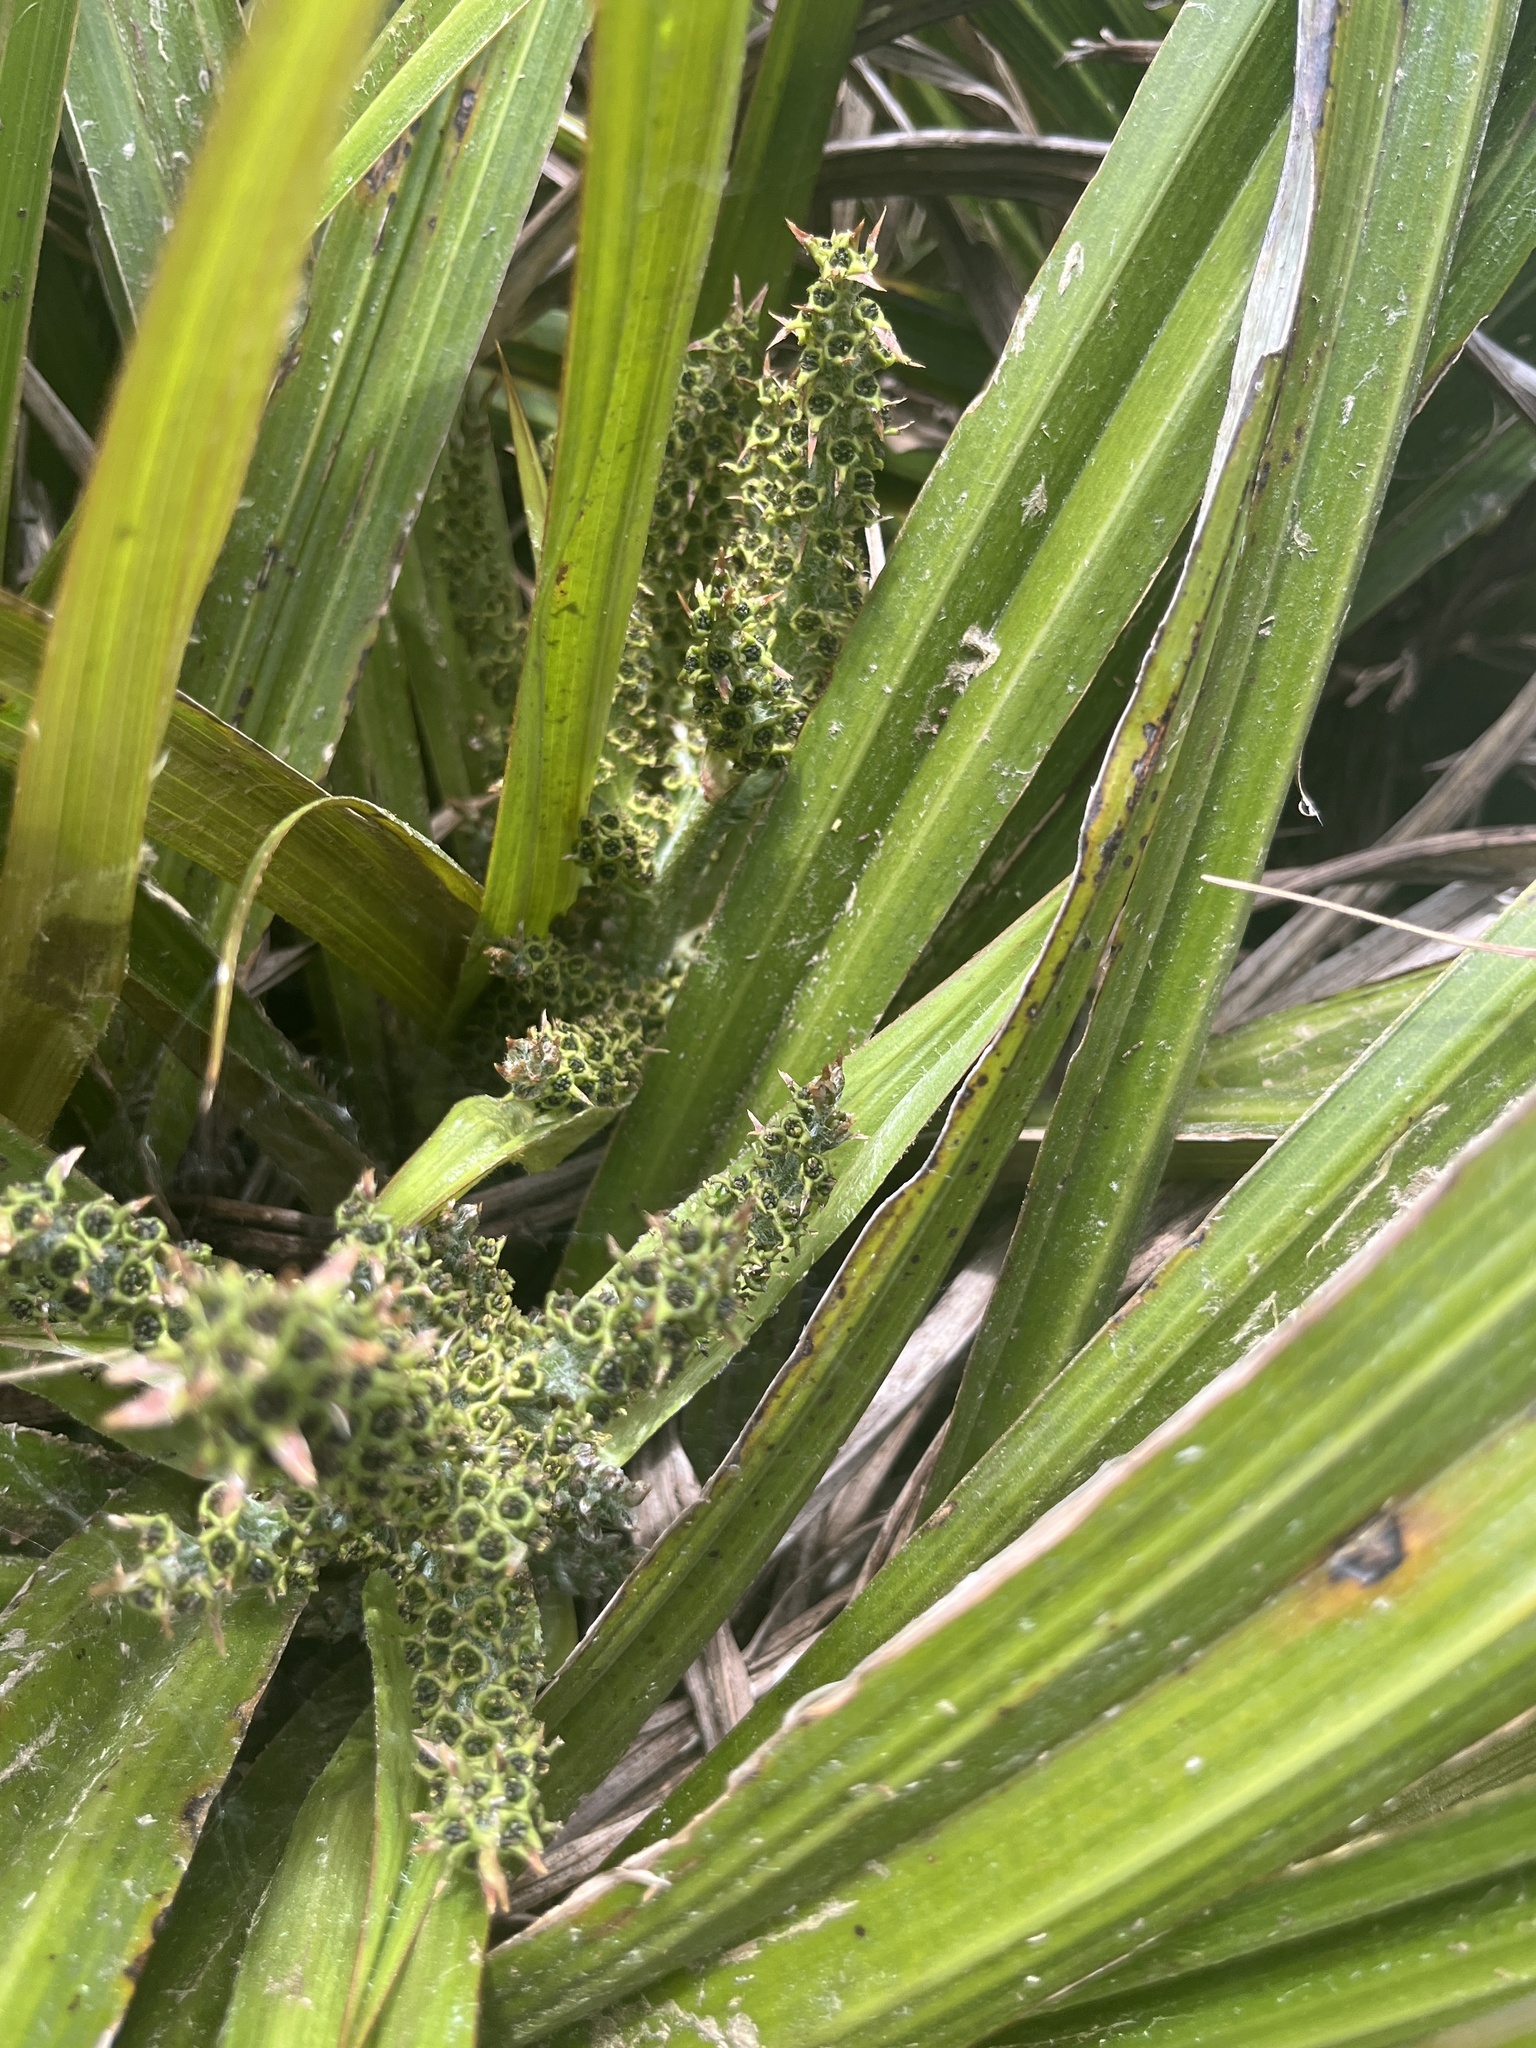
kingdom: Plantae
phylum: Tracheophyta
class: Liliopsida
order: Asparagales
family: Asteliaceae
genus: Astelia
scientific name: Astelia fragrans
